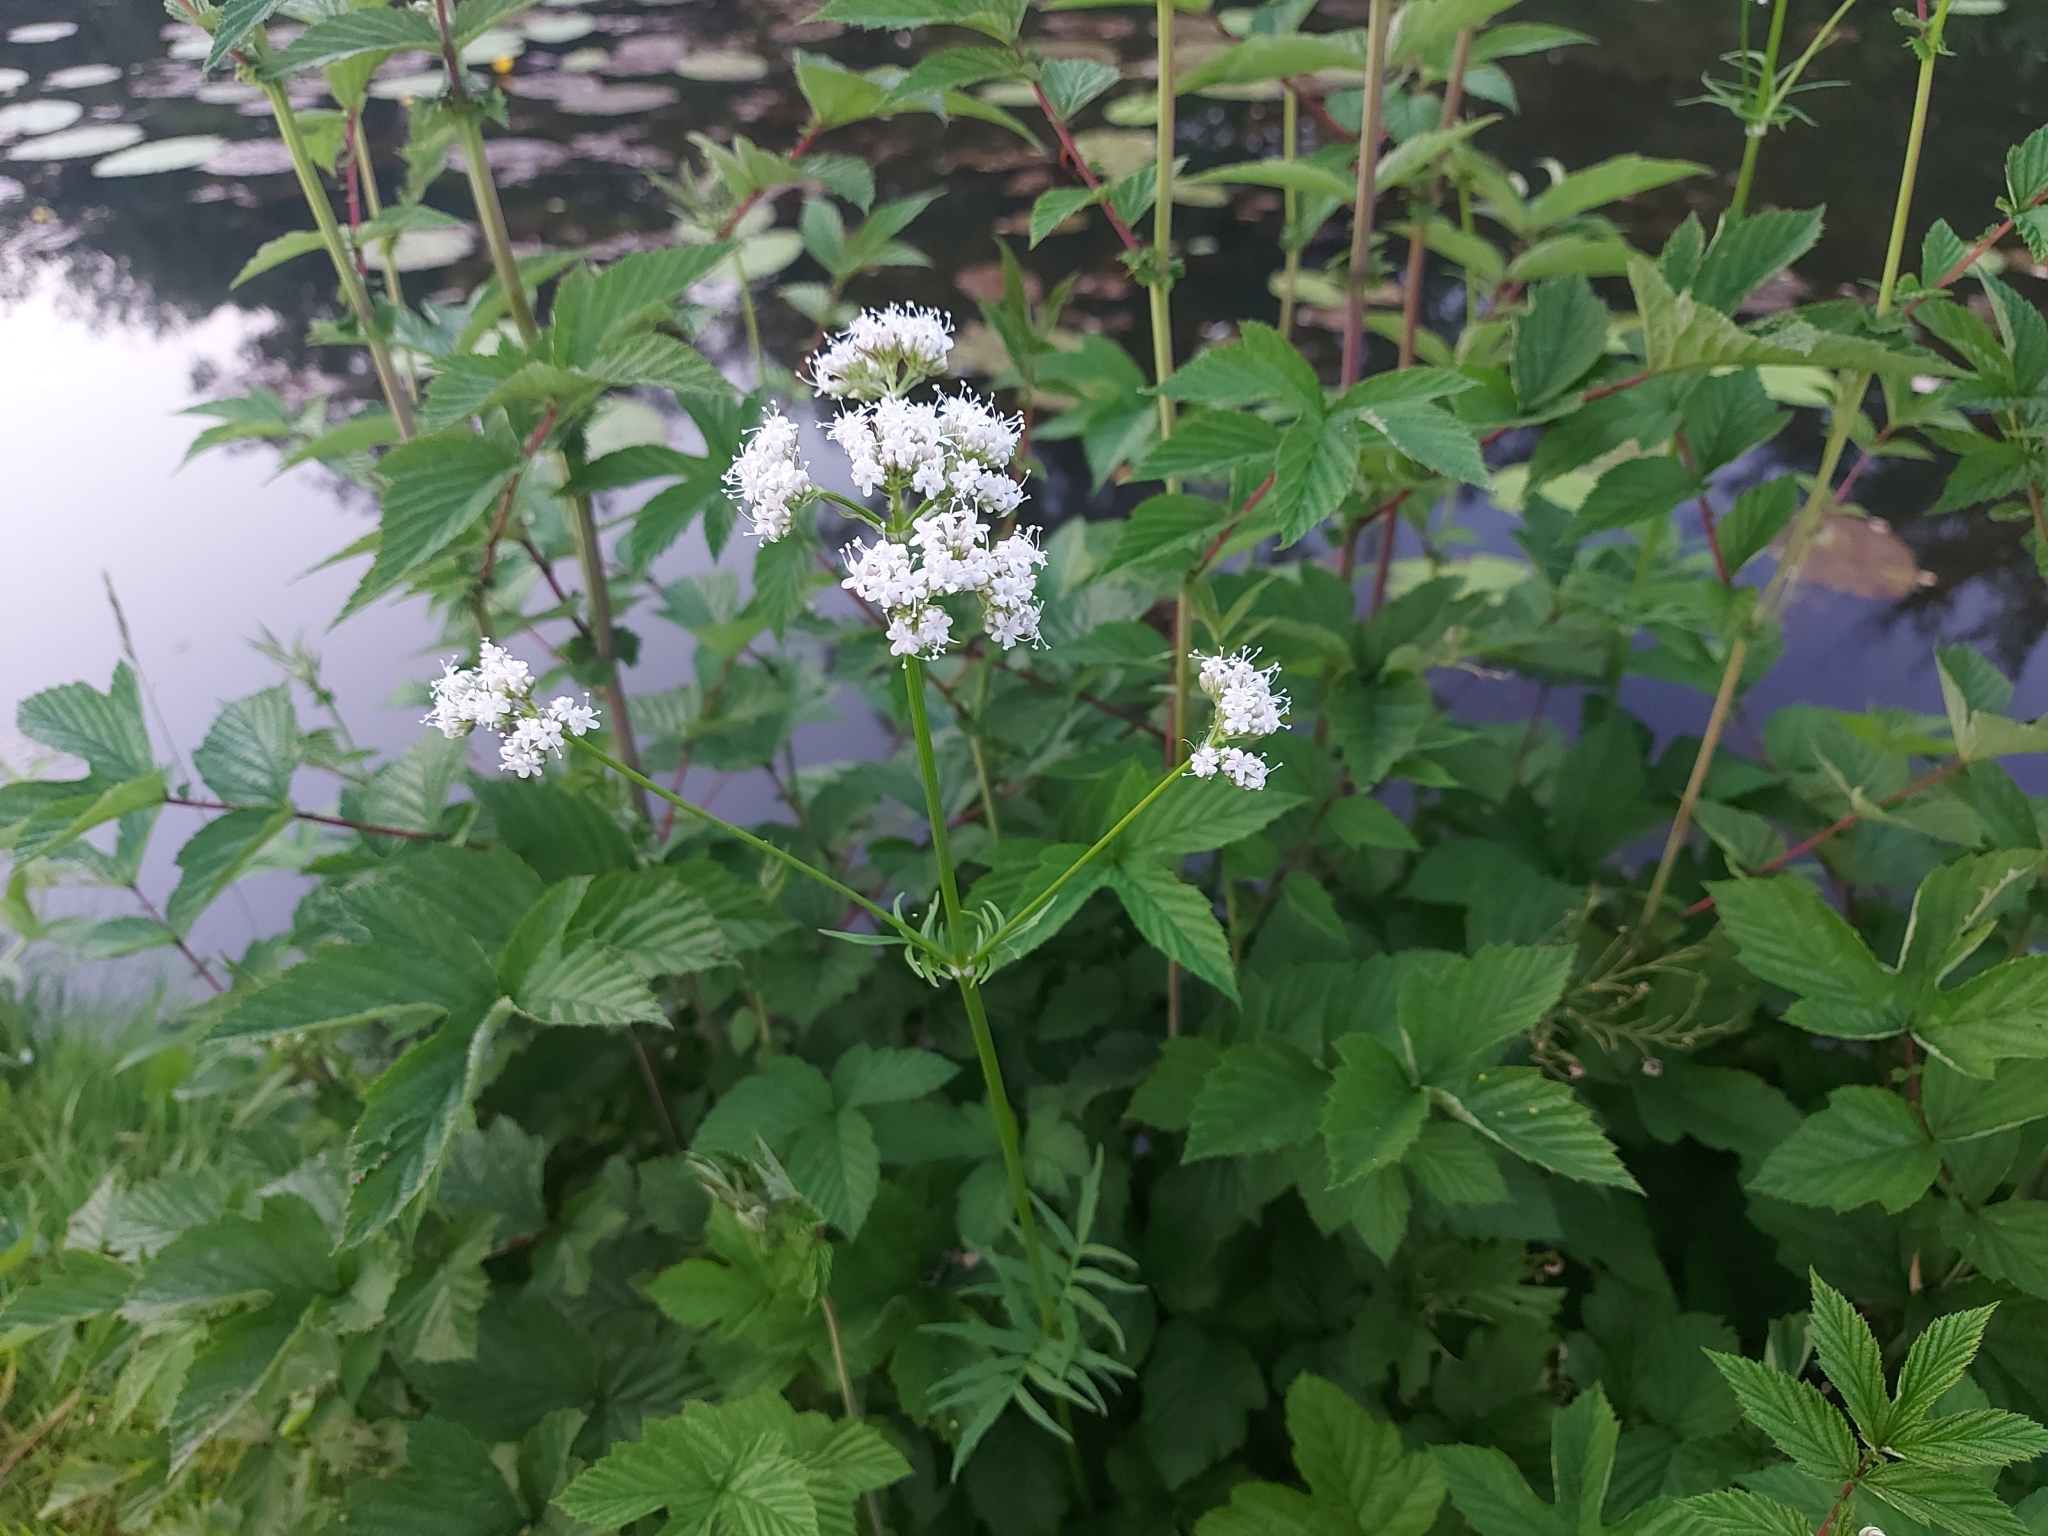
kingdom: Plantae
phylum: Tracheophyta
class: Magnoliopsida
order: Dipsacales
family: Caprifoliaceae
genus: Valeriana
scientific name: Valeriana officinalis
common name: Common valerian
